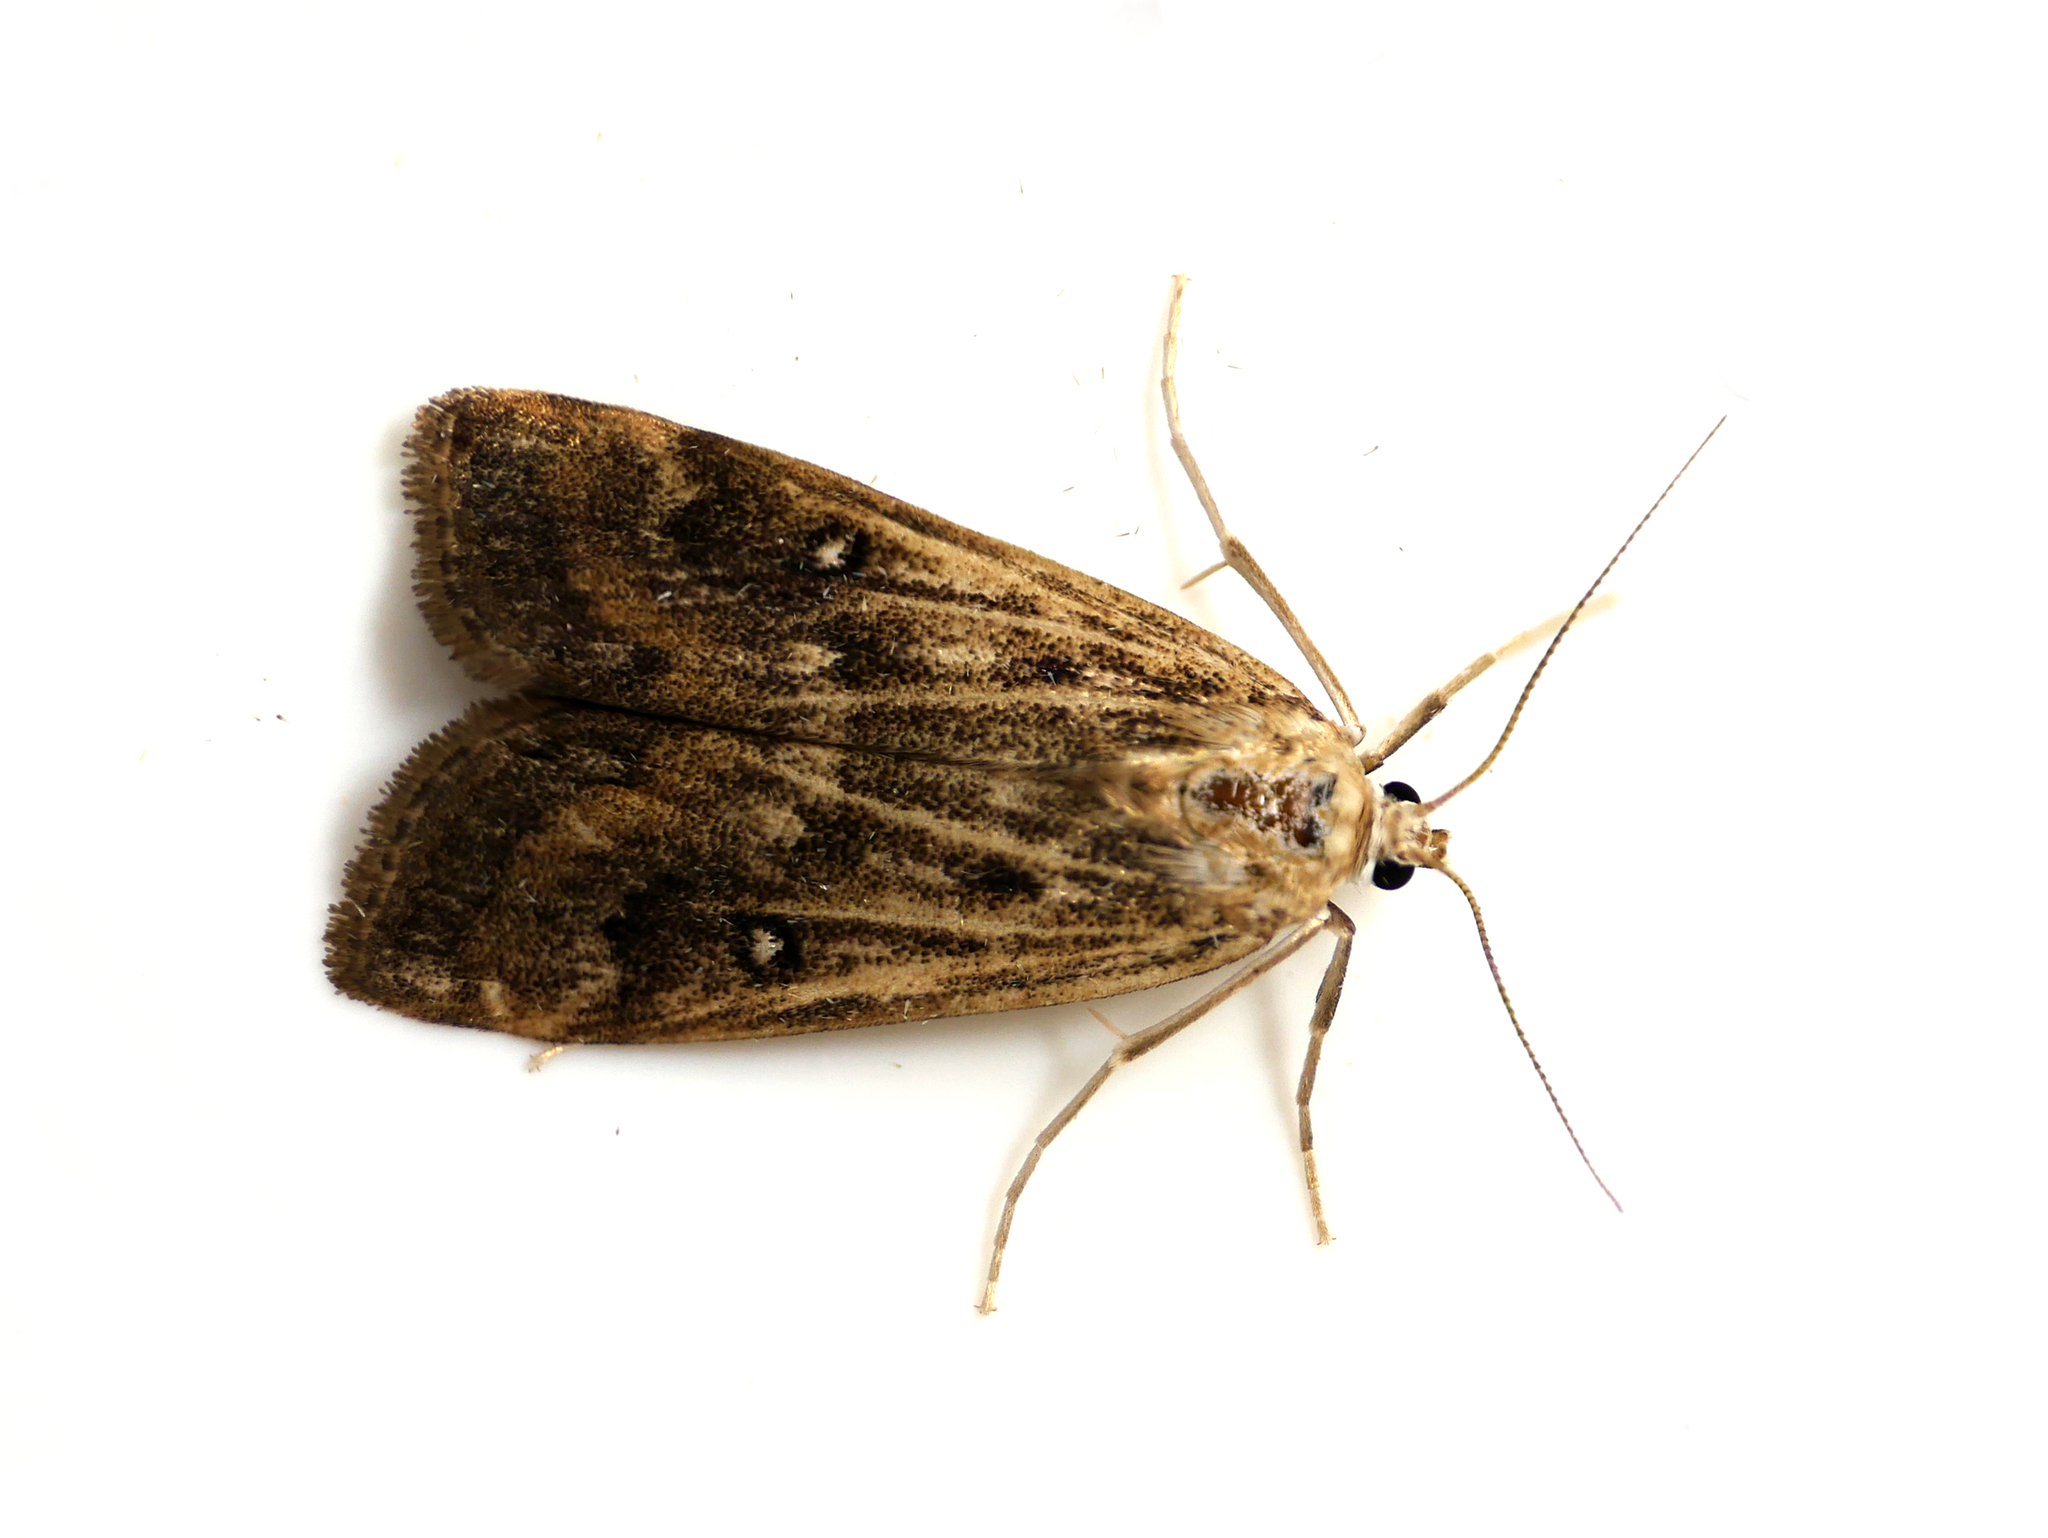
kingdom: Animalia
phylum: Arthropoda
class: Insecta
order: Lepidoptera
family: Crambidae
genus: Parapoynx
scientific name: Parapoynx stratiotata
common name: Ringed china-mark
